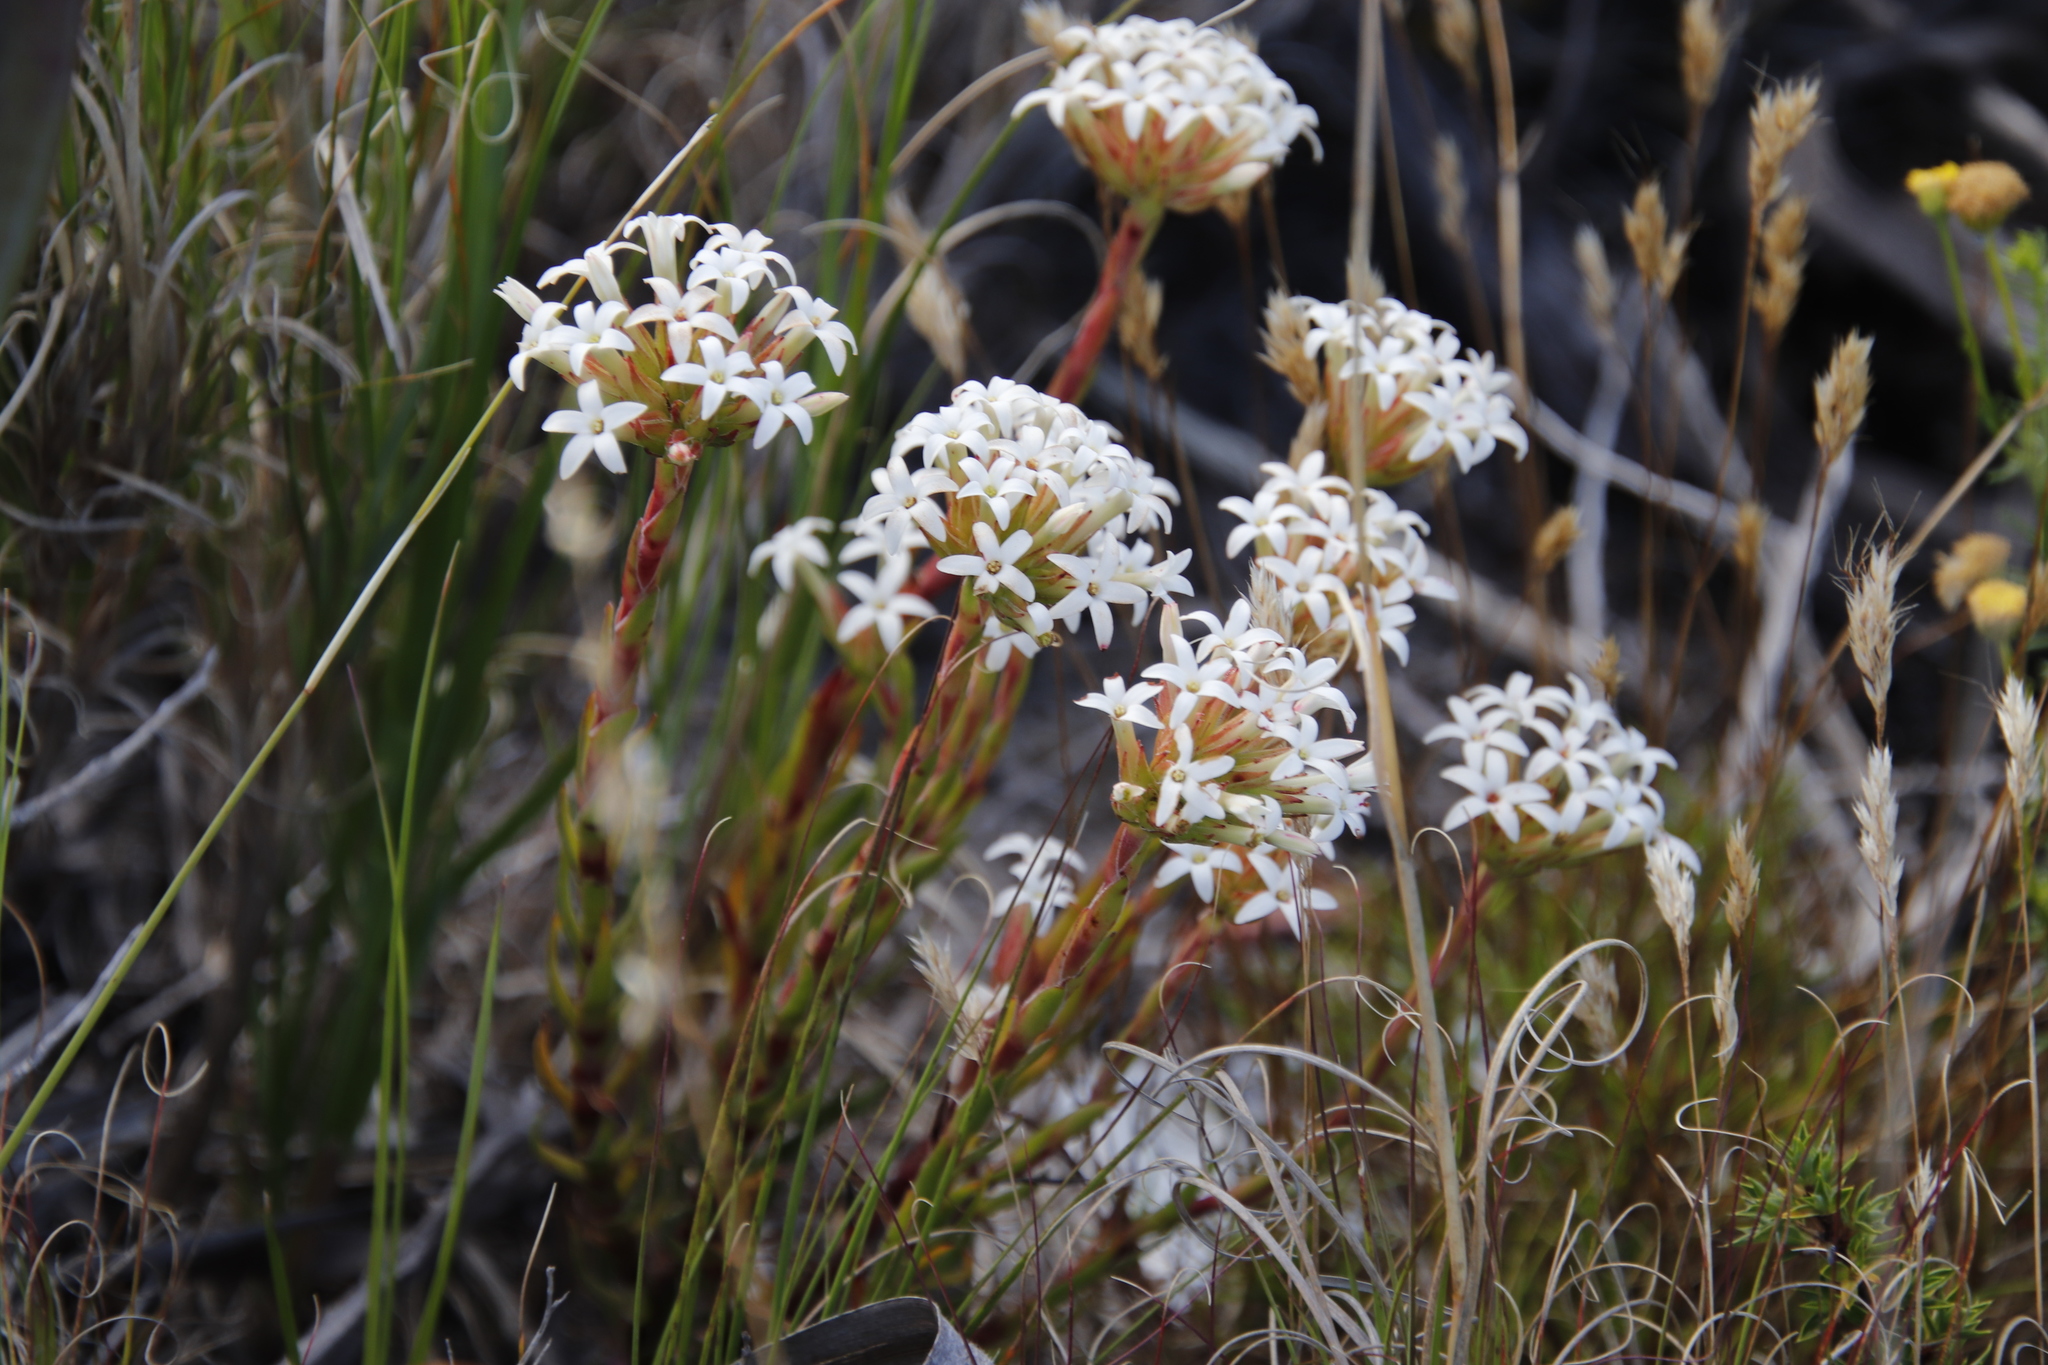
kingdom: Plantae
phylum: Tracheophyta
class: Magnoliopsida
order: Saxifragales
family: Crassulaceae
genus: Crassula
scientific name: Crassula fascicularis
